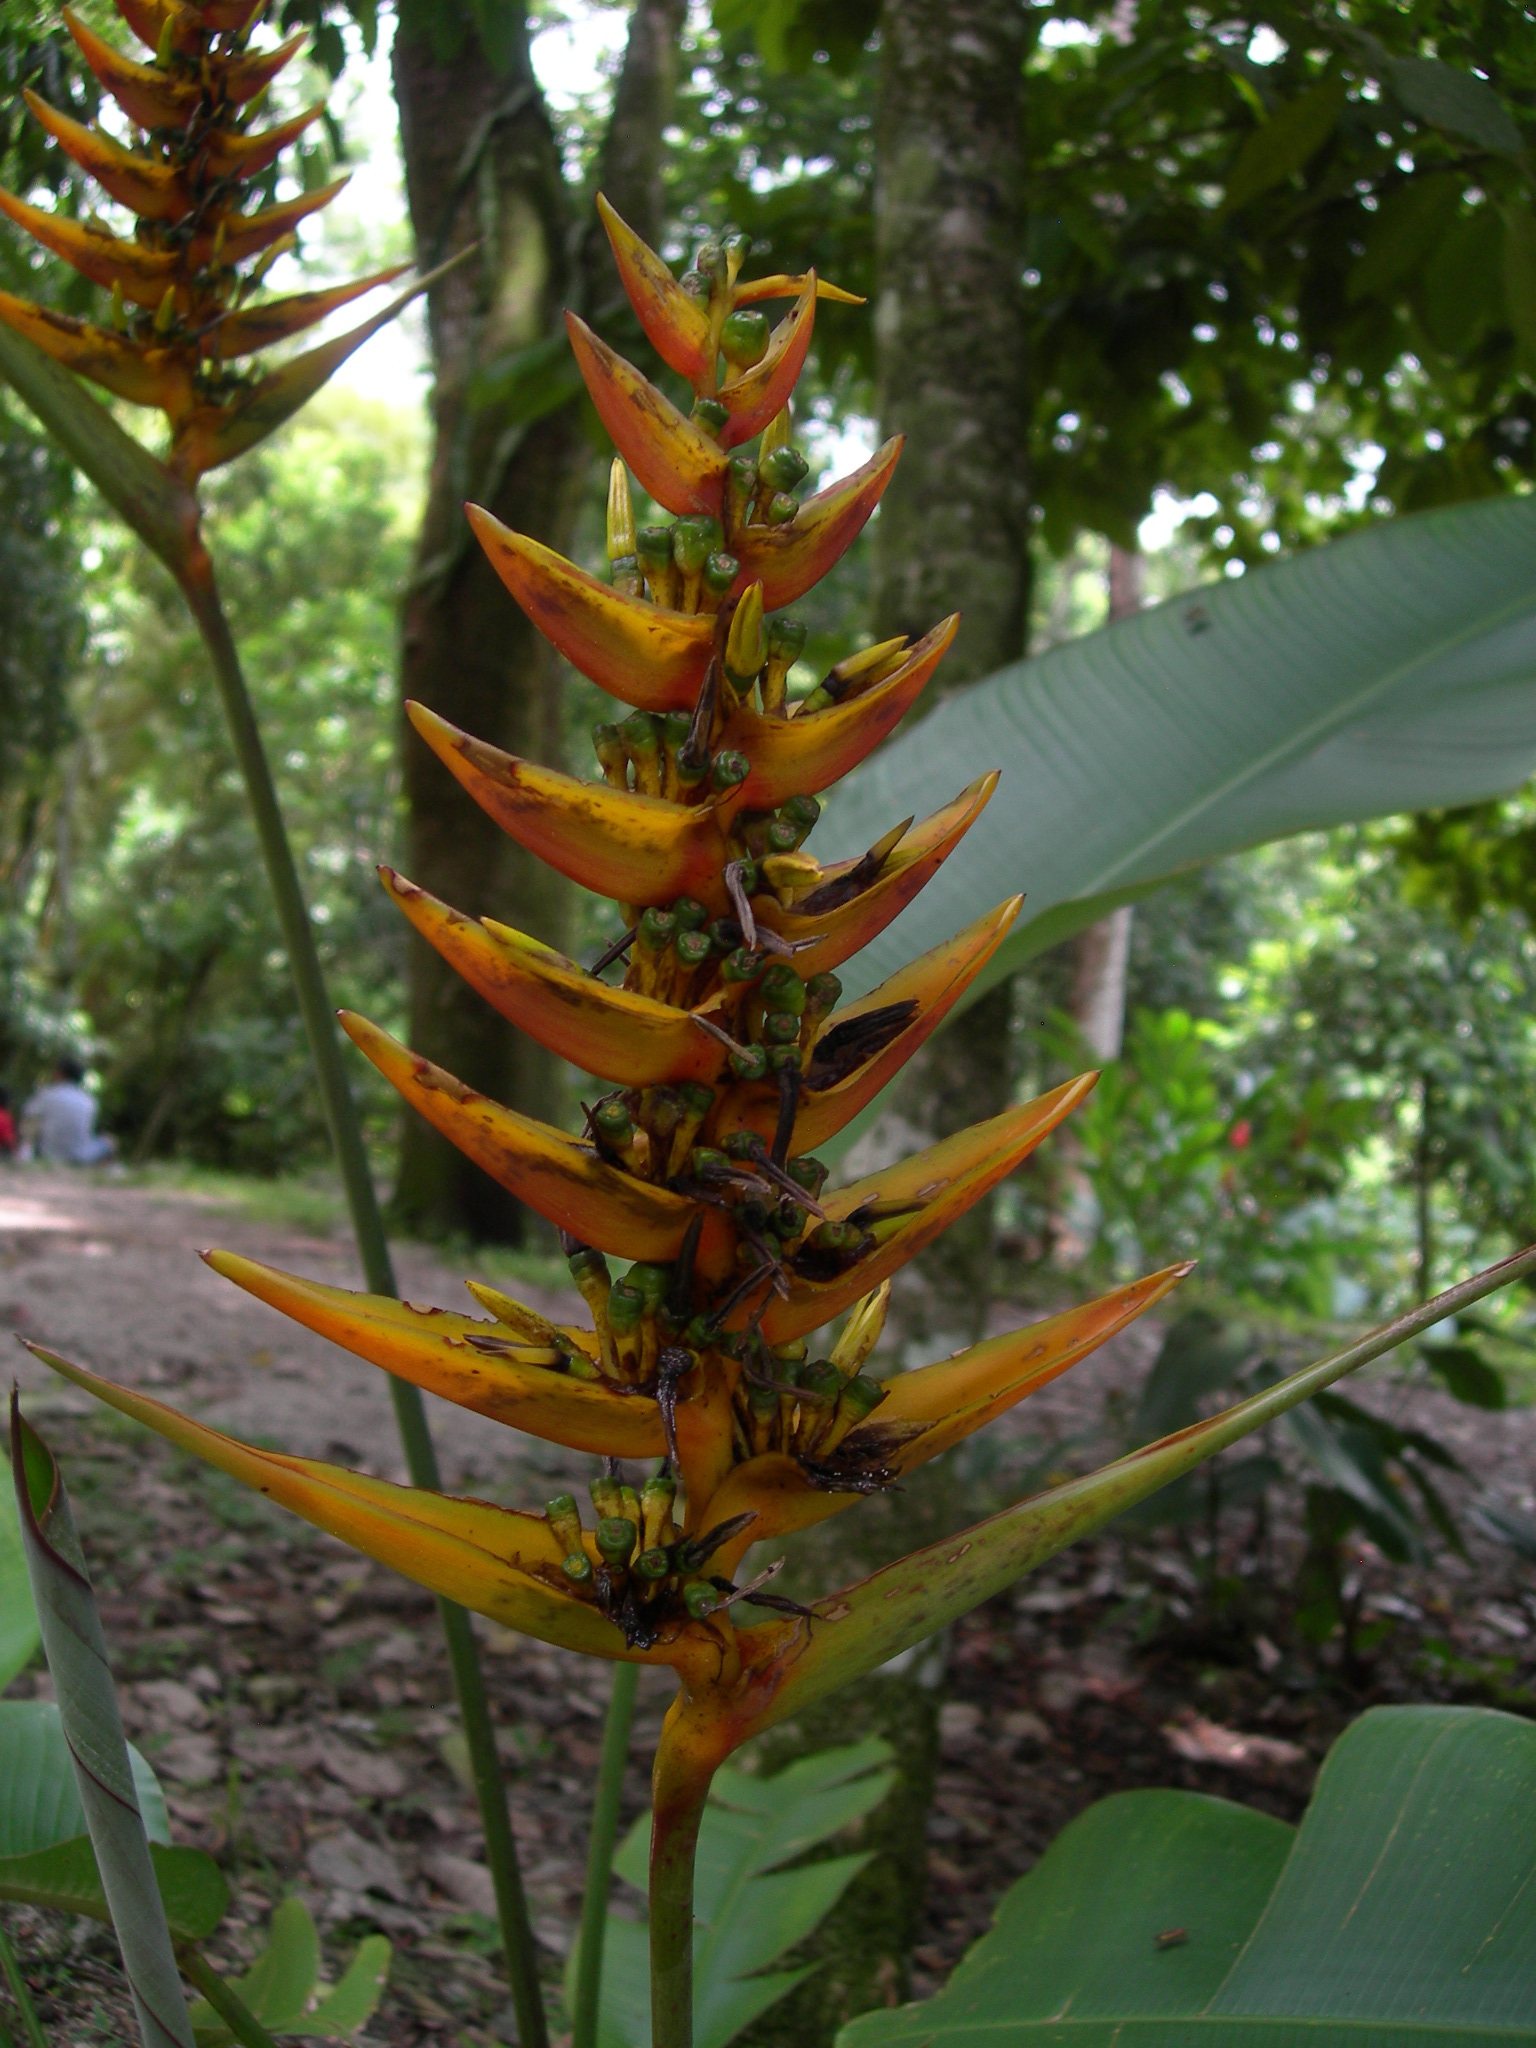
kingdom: Plantae
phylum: Tracheophyta
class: Liliopsida
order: Zingiberales
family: Heliconiaceae
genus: Heliconia
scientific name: Heliconia librata
